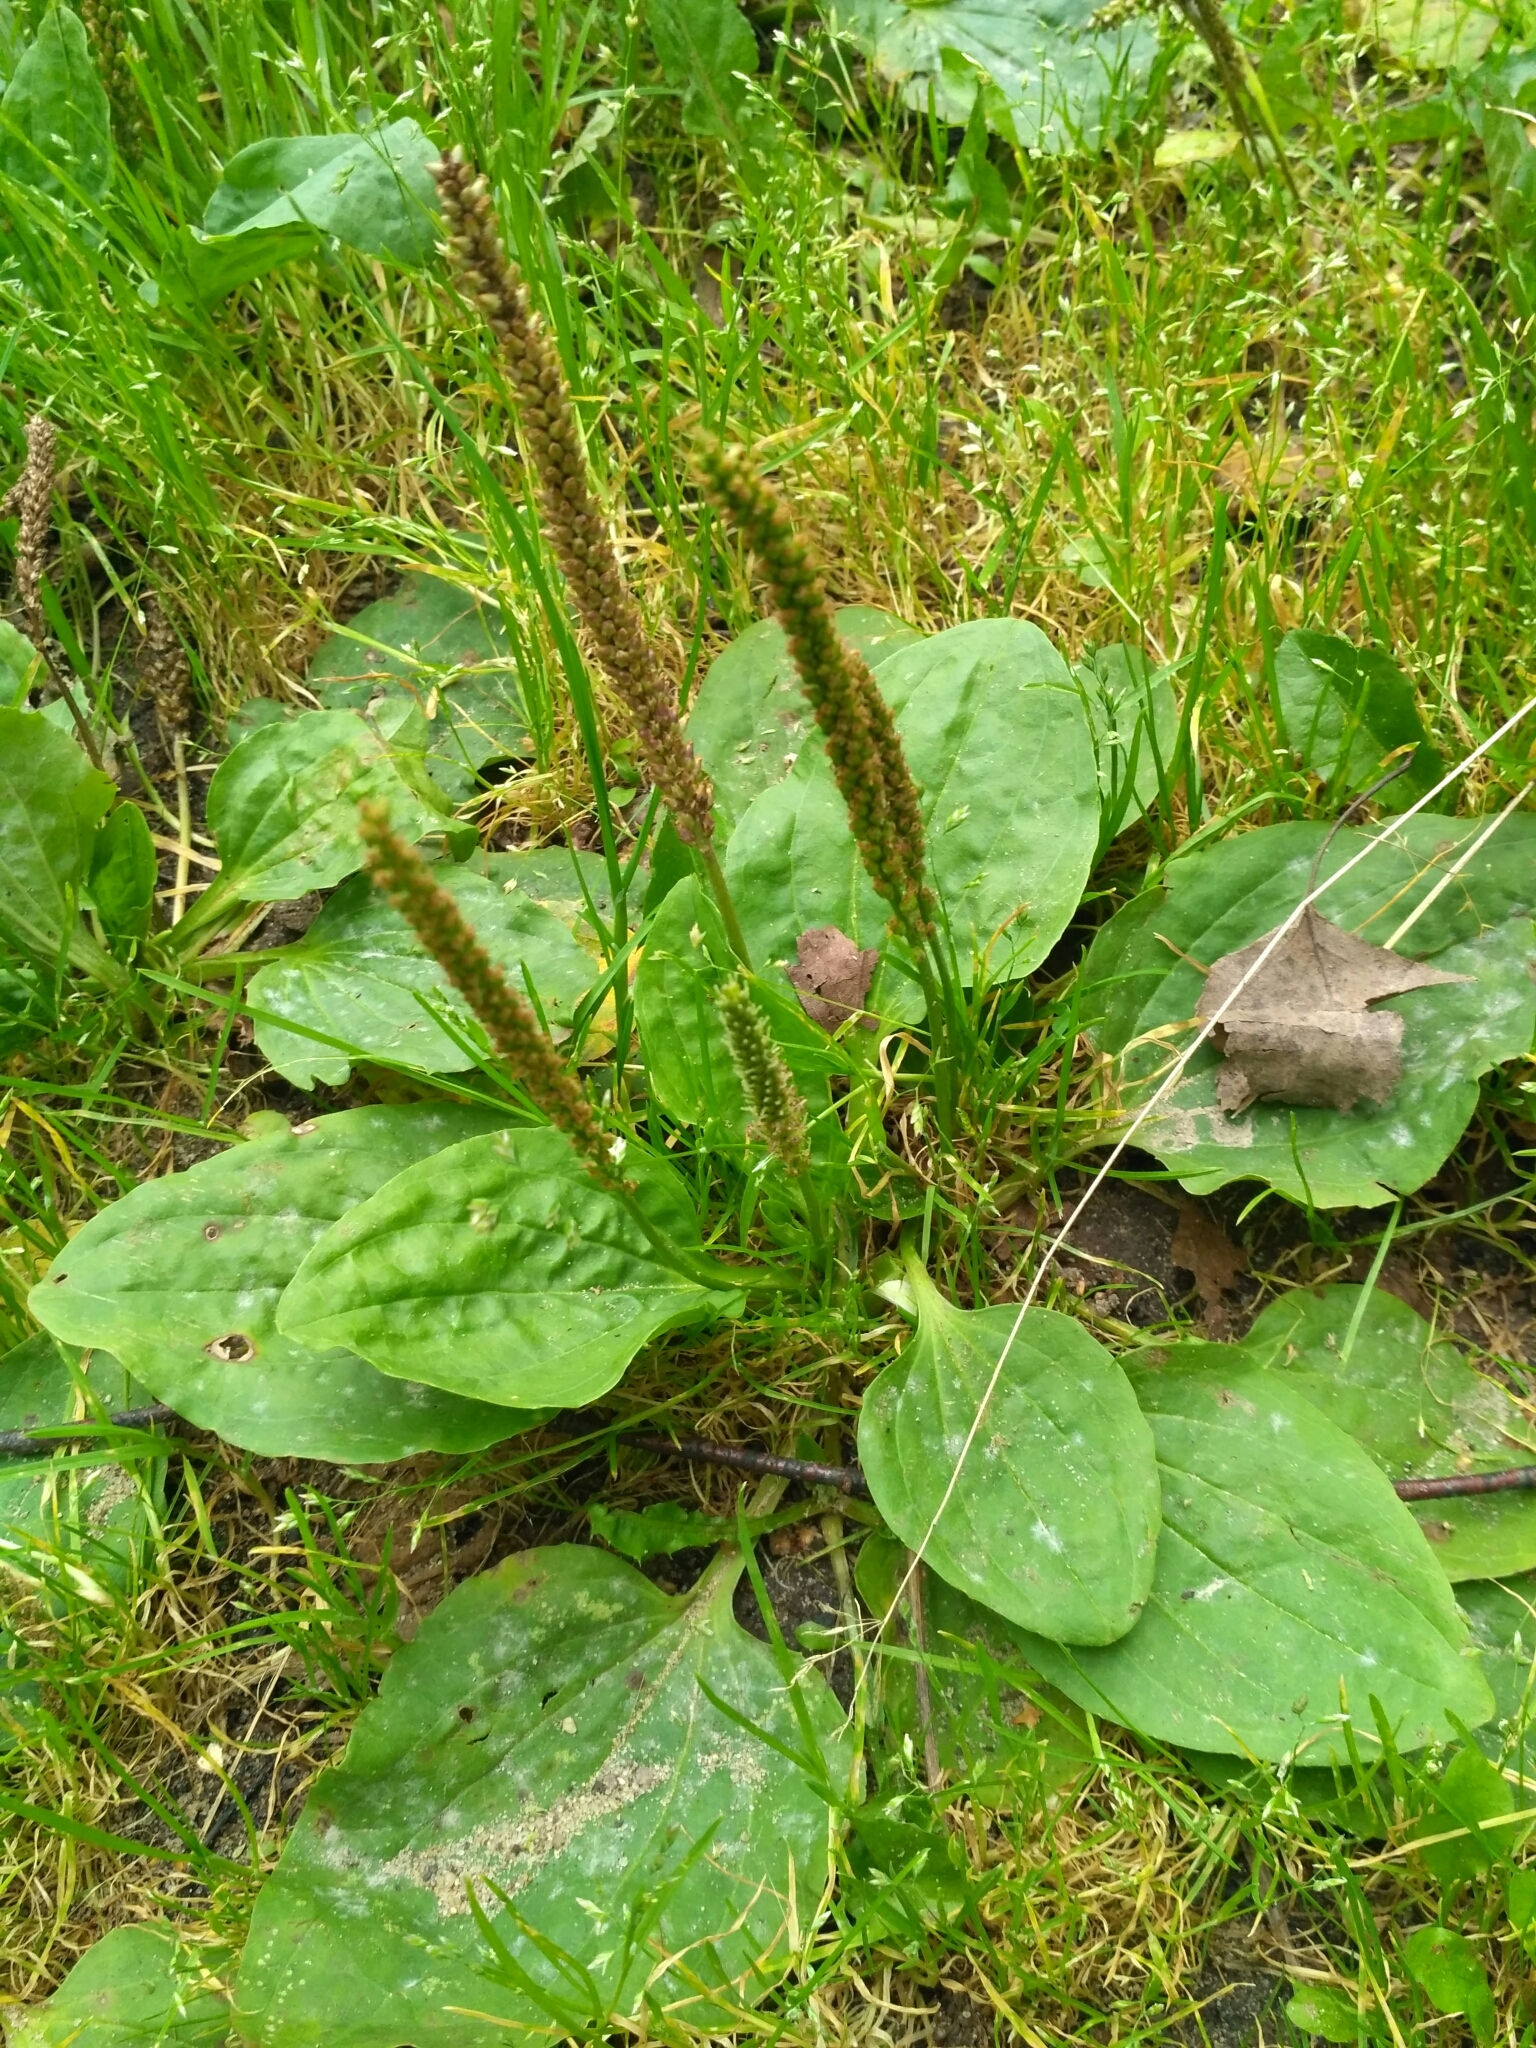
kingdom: Plantae
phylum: Tracheophyta
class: Magnoliopsida
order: Lamiales
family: Plantaginaceae
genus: Plantago
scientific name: Plantago major
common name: Common plantain
